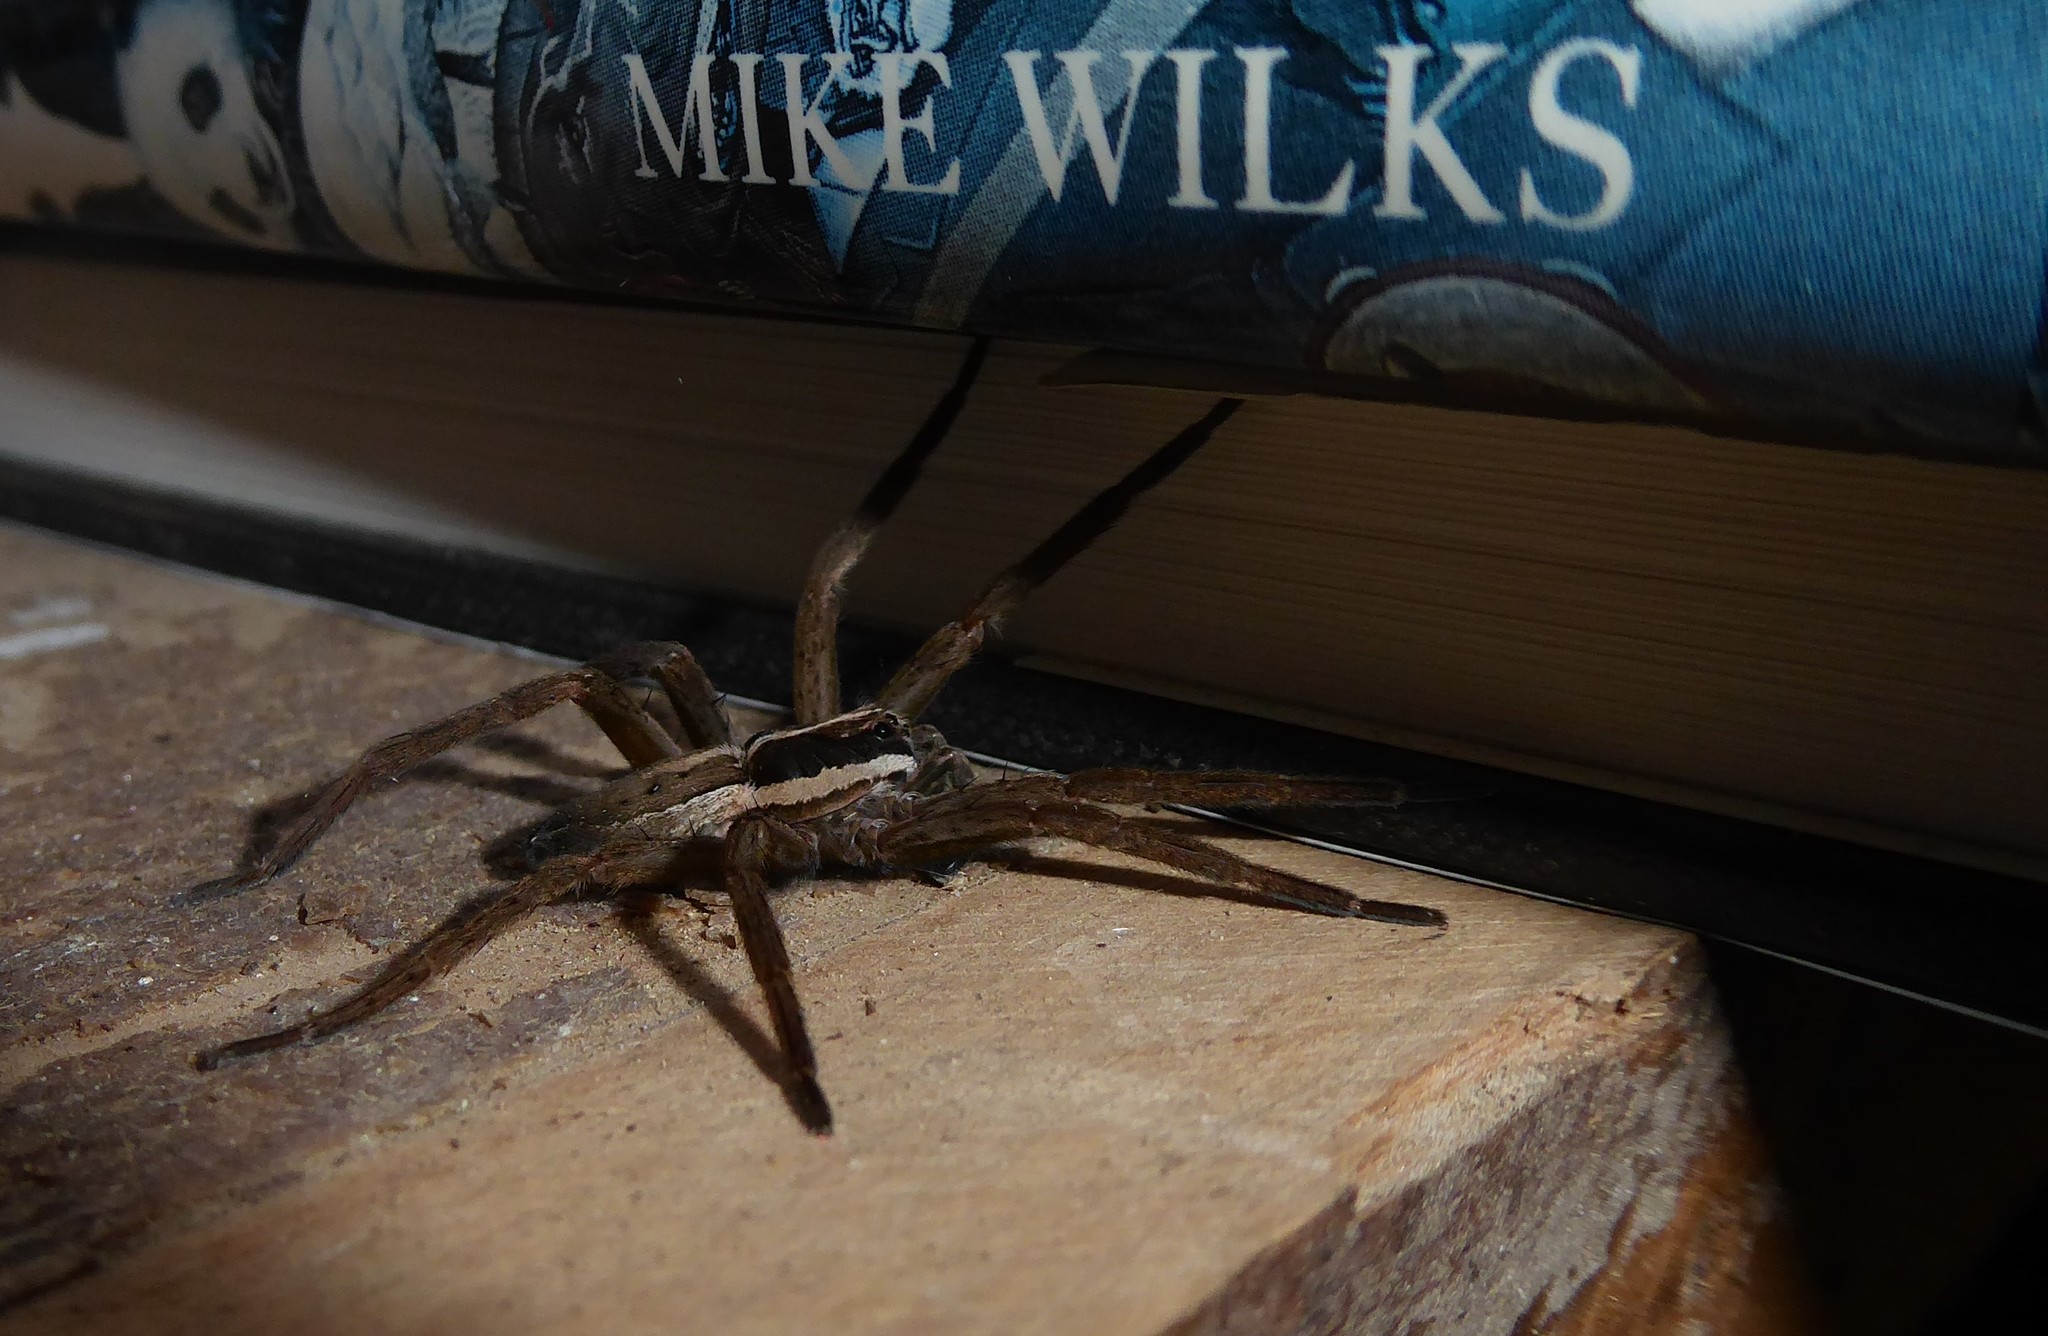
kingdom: Animalia
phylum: Arthropoda
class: Arachnida
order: Araneae
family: Pisauridae
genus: Dolomedes
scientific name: Dolomedes minor
